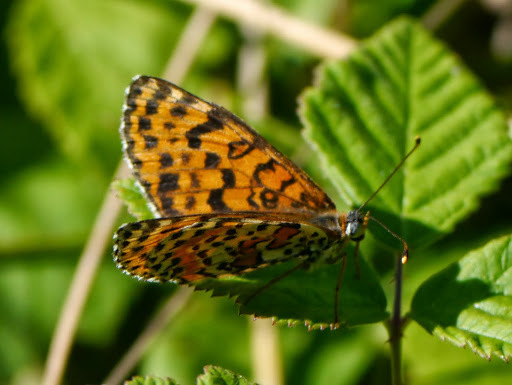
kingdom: Animalia
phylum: Arthropoda
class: Insecta
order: Lepidoptera
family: Nymphalidae
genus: Melitaea
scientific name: Melitaea didyma
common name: Spotted fritillary
